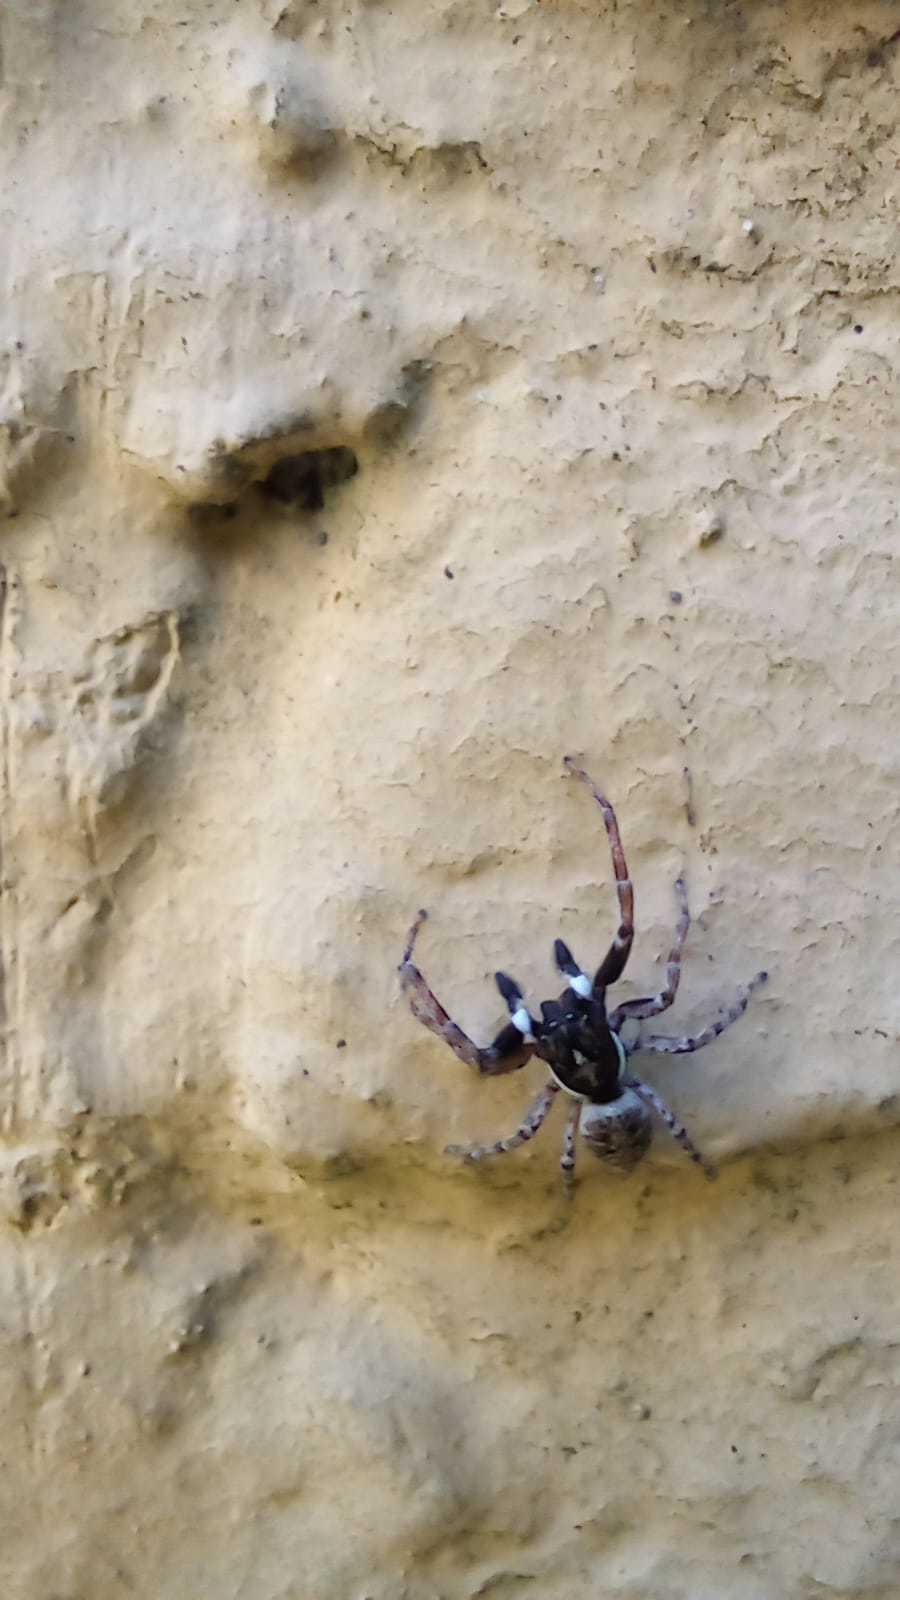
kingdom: Animalia
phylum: Arthropoda
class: Arachnida
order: Araneae
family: Salticidae
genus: Menemerus
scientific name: Menemerus semilimbatus
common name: Jumping spider
